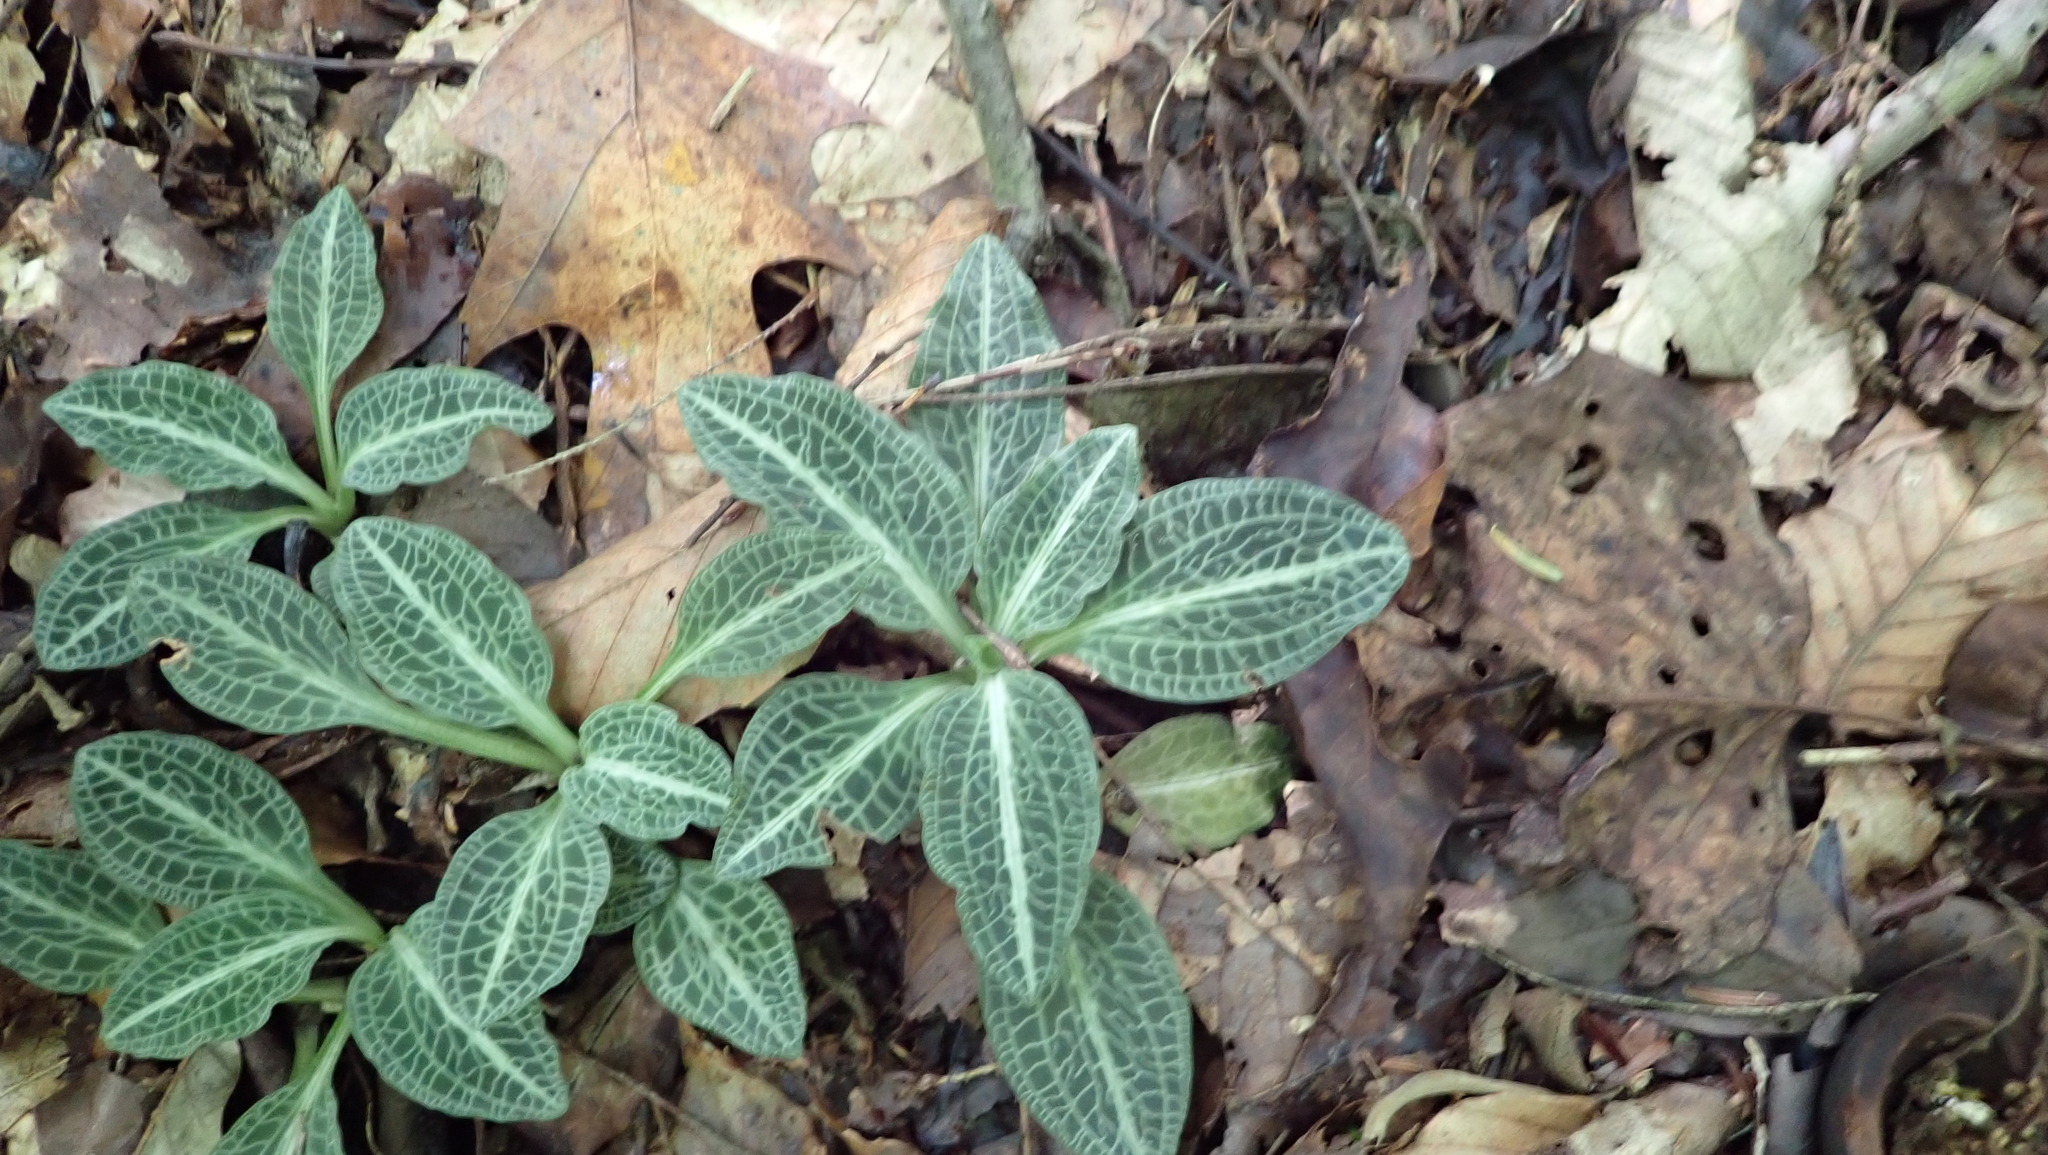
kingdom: Plantae
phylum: Tracheophyta
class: Liliopsida
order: Asparagales
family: Orchidaceae
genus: Goodyera
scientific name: Goodyera pubescens
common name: Downy rattlesnake-plantain
